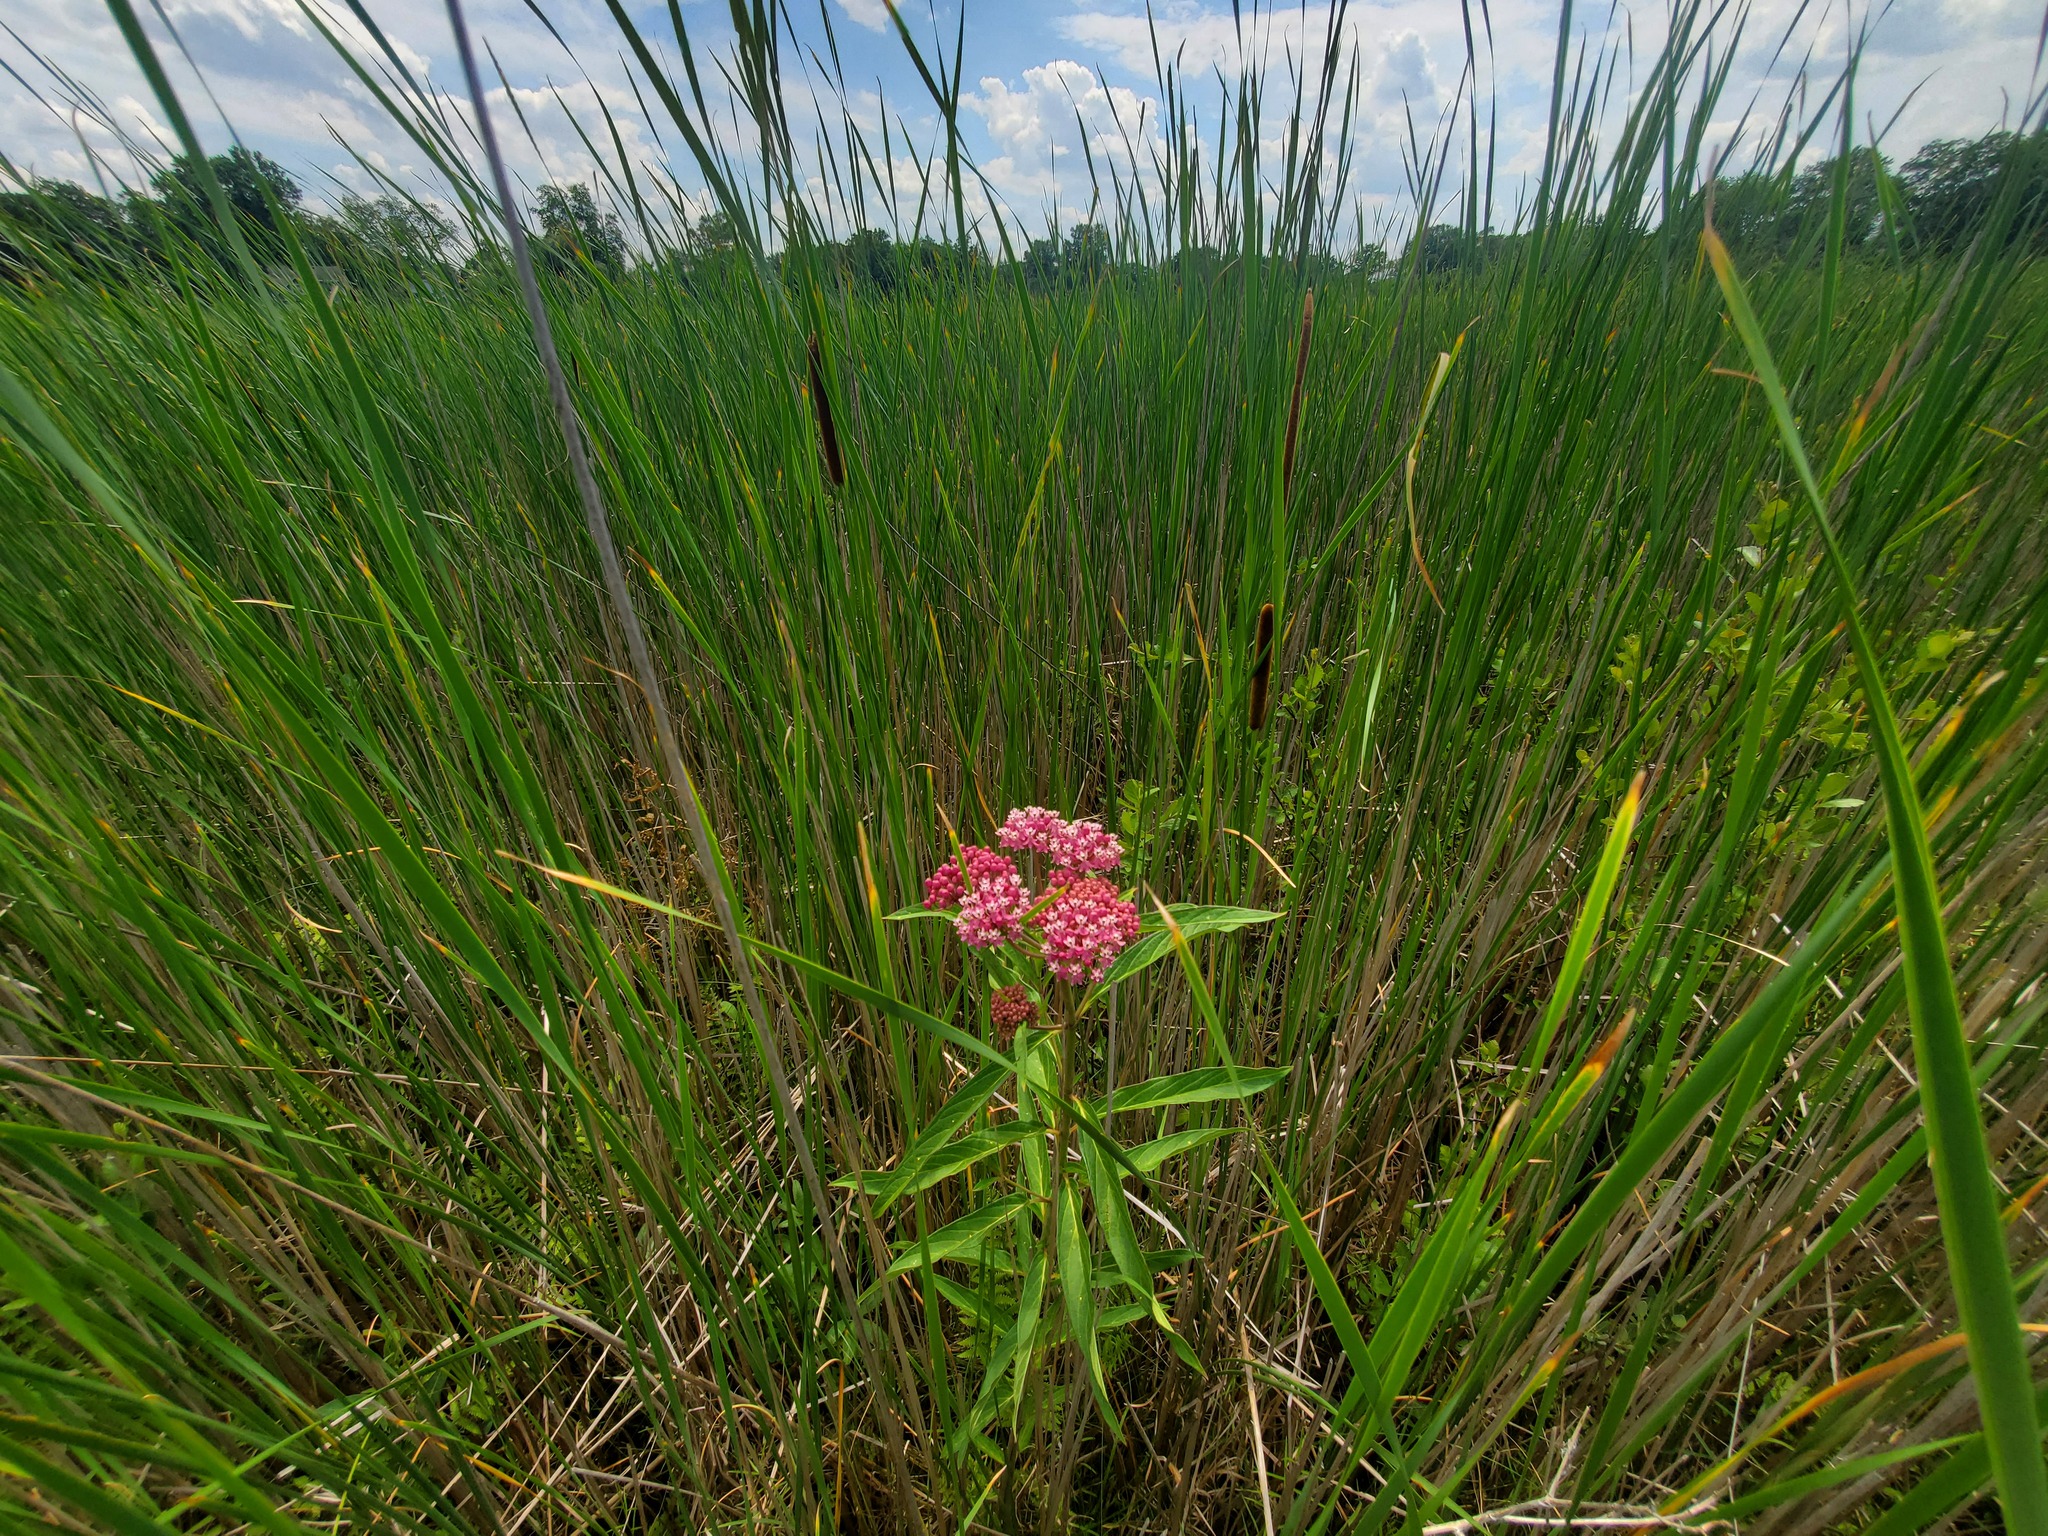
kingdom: Plantae
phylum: Tracheophyta
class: Magnoliopsida
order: Gentianales
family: Apocynaceae
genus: Asclepias
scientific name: Asclepias incarnata
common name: Swamp milkweed
